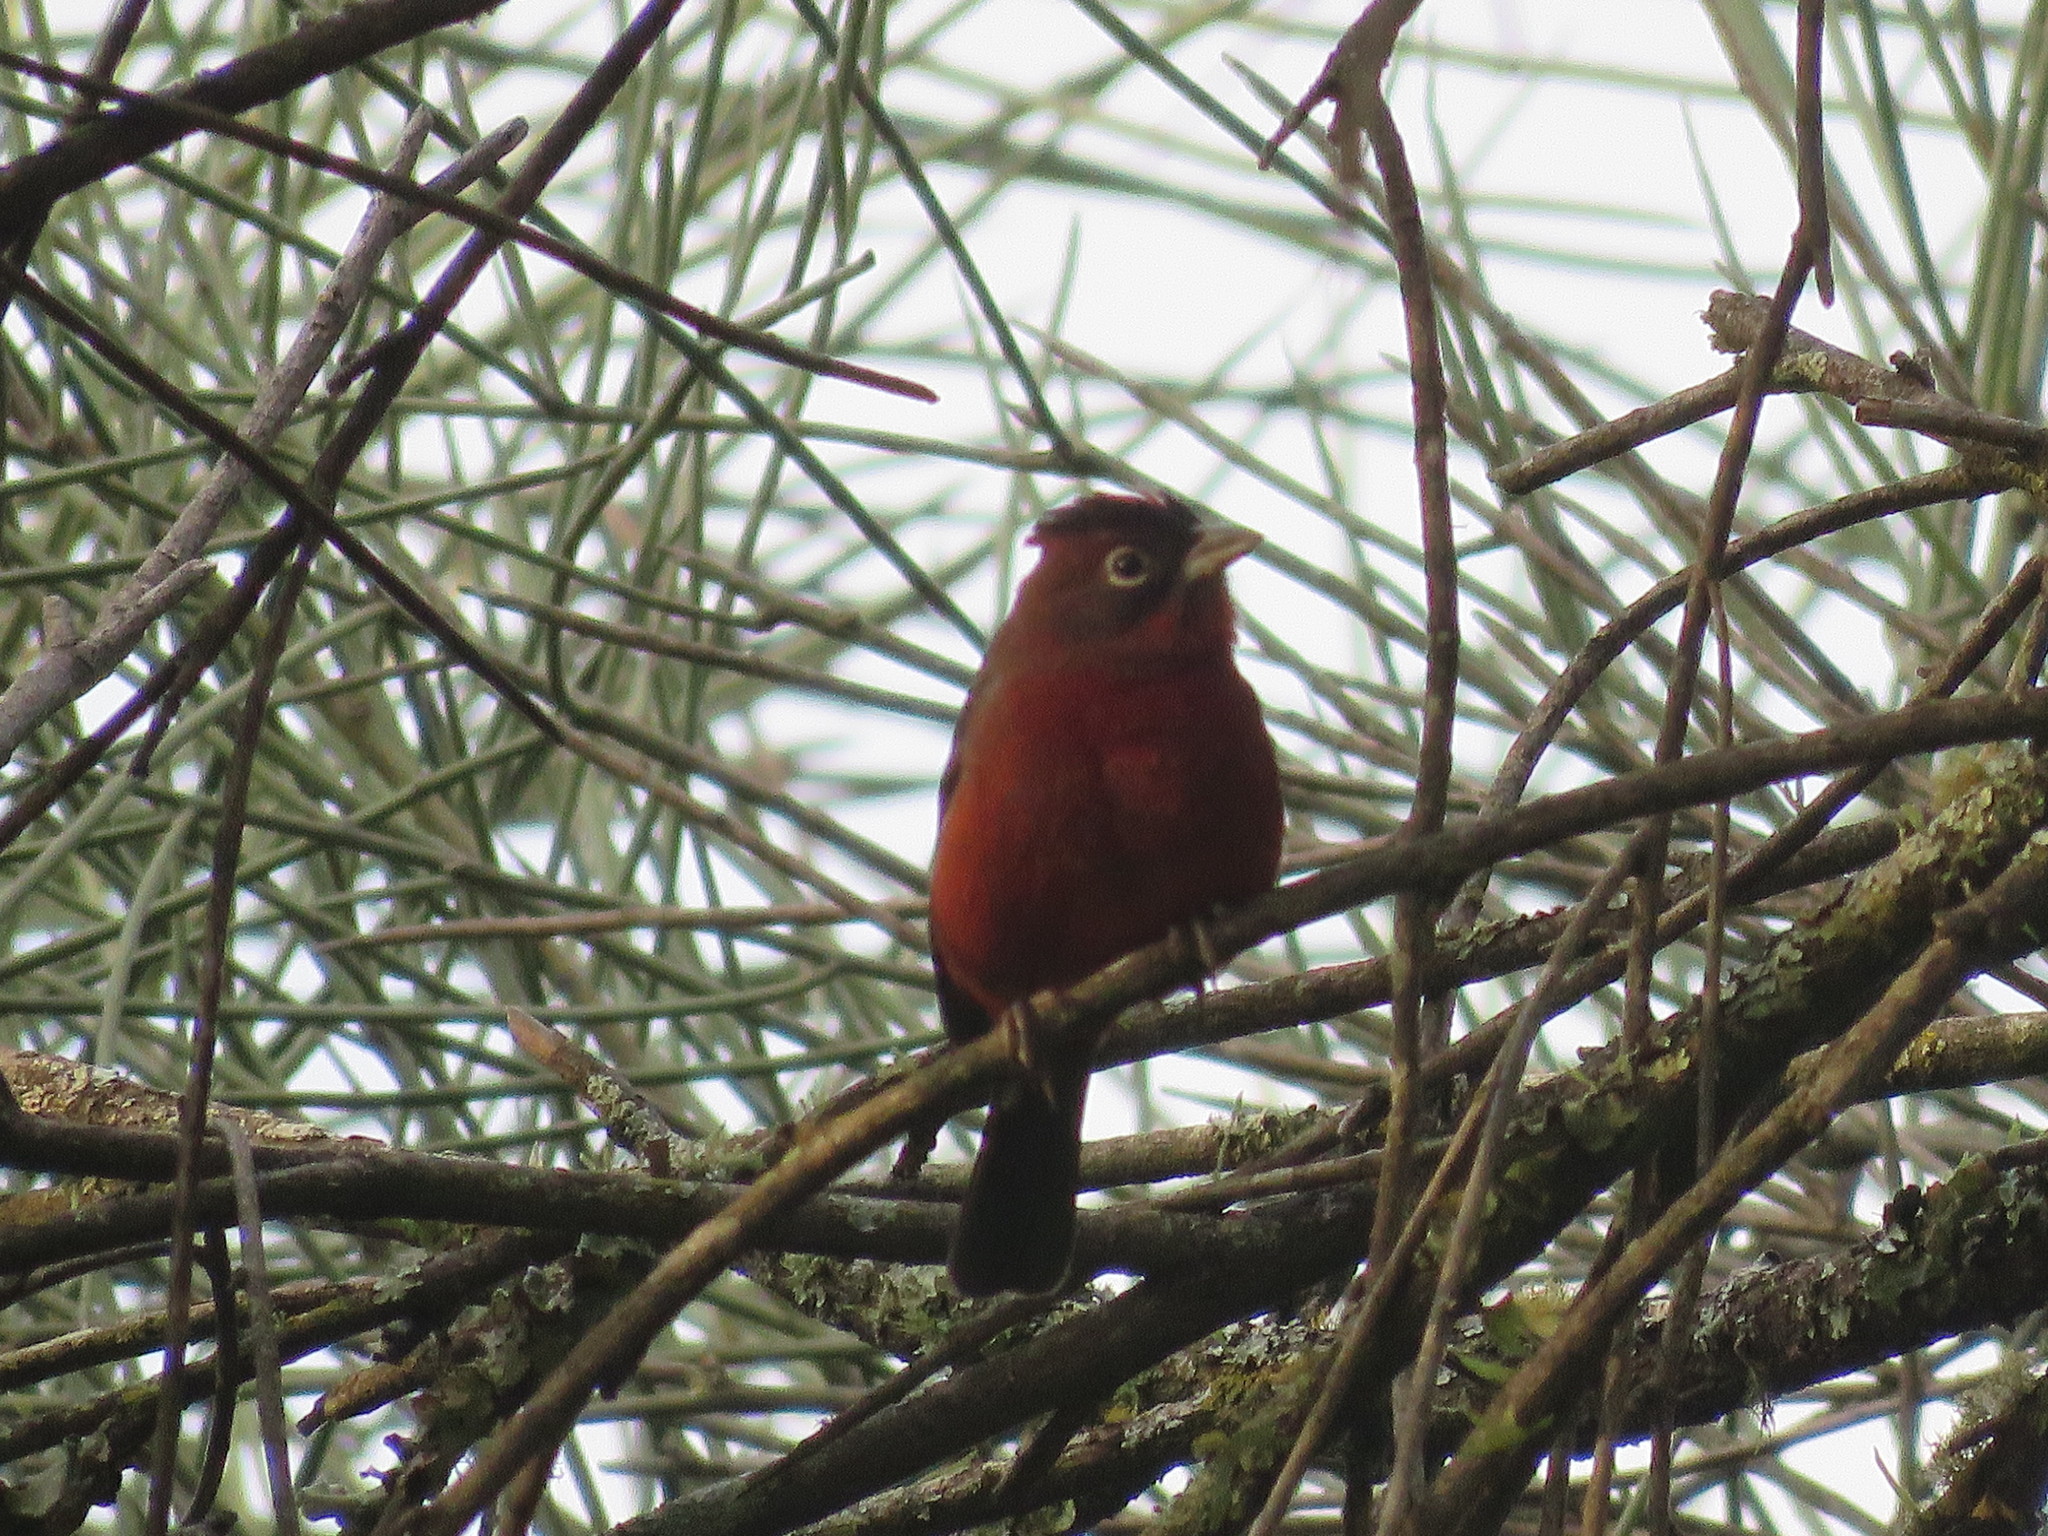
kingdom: Animalia
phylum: Chordata
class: Aves
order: Passeriformes
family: Thraupidae
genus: Coryphospingus
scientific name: Coryphospingus cucullatus
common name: Red pileated finch
